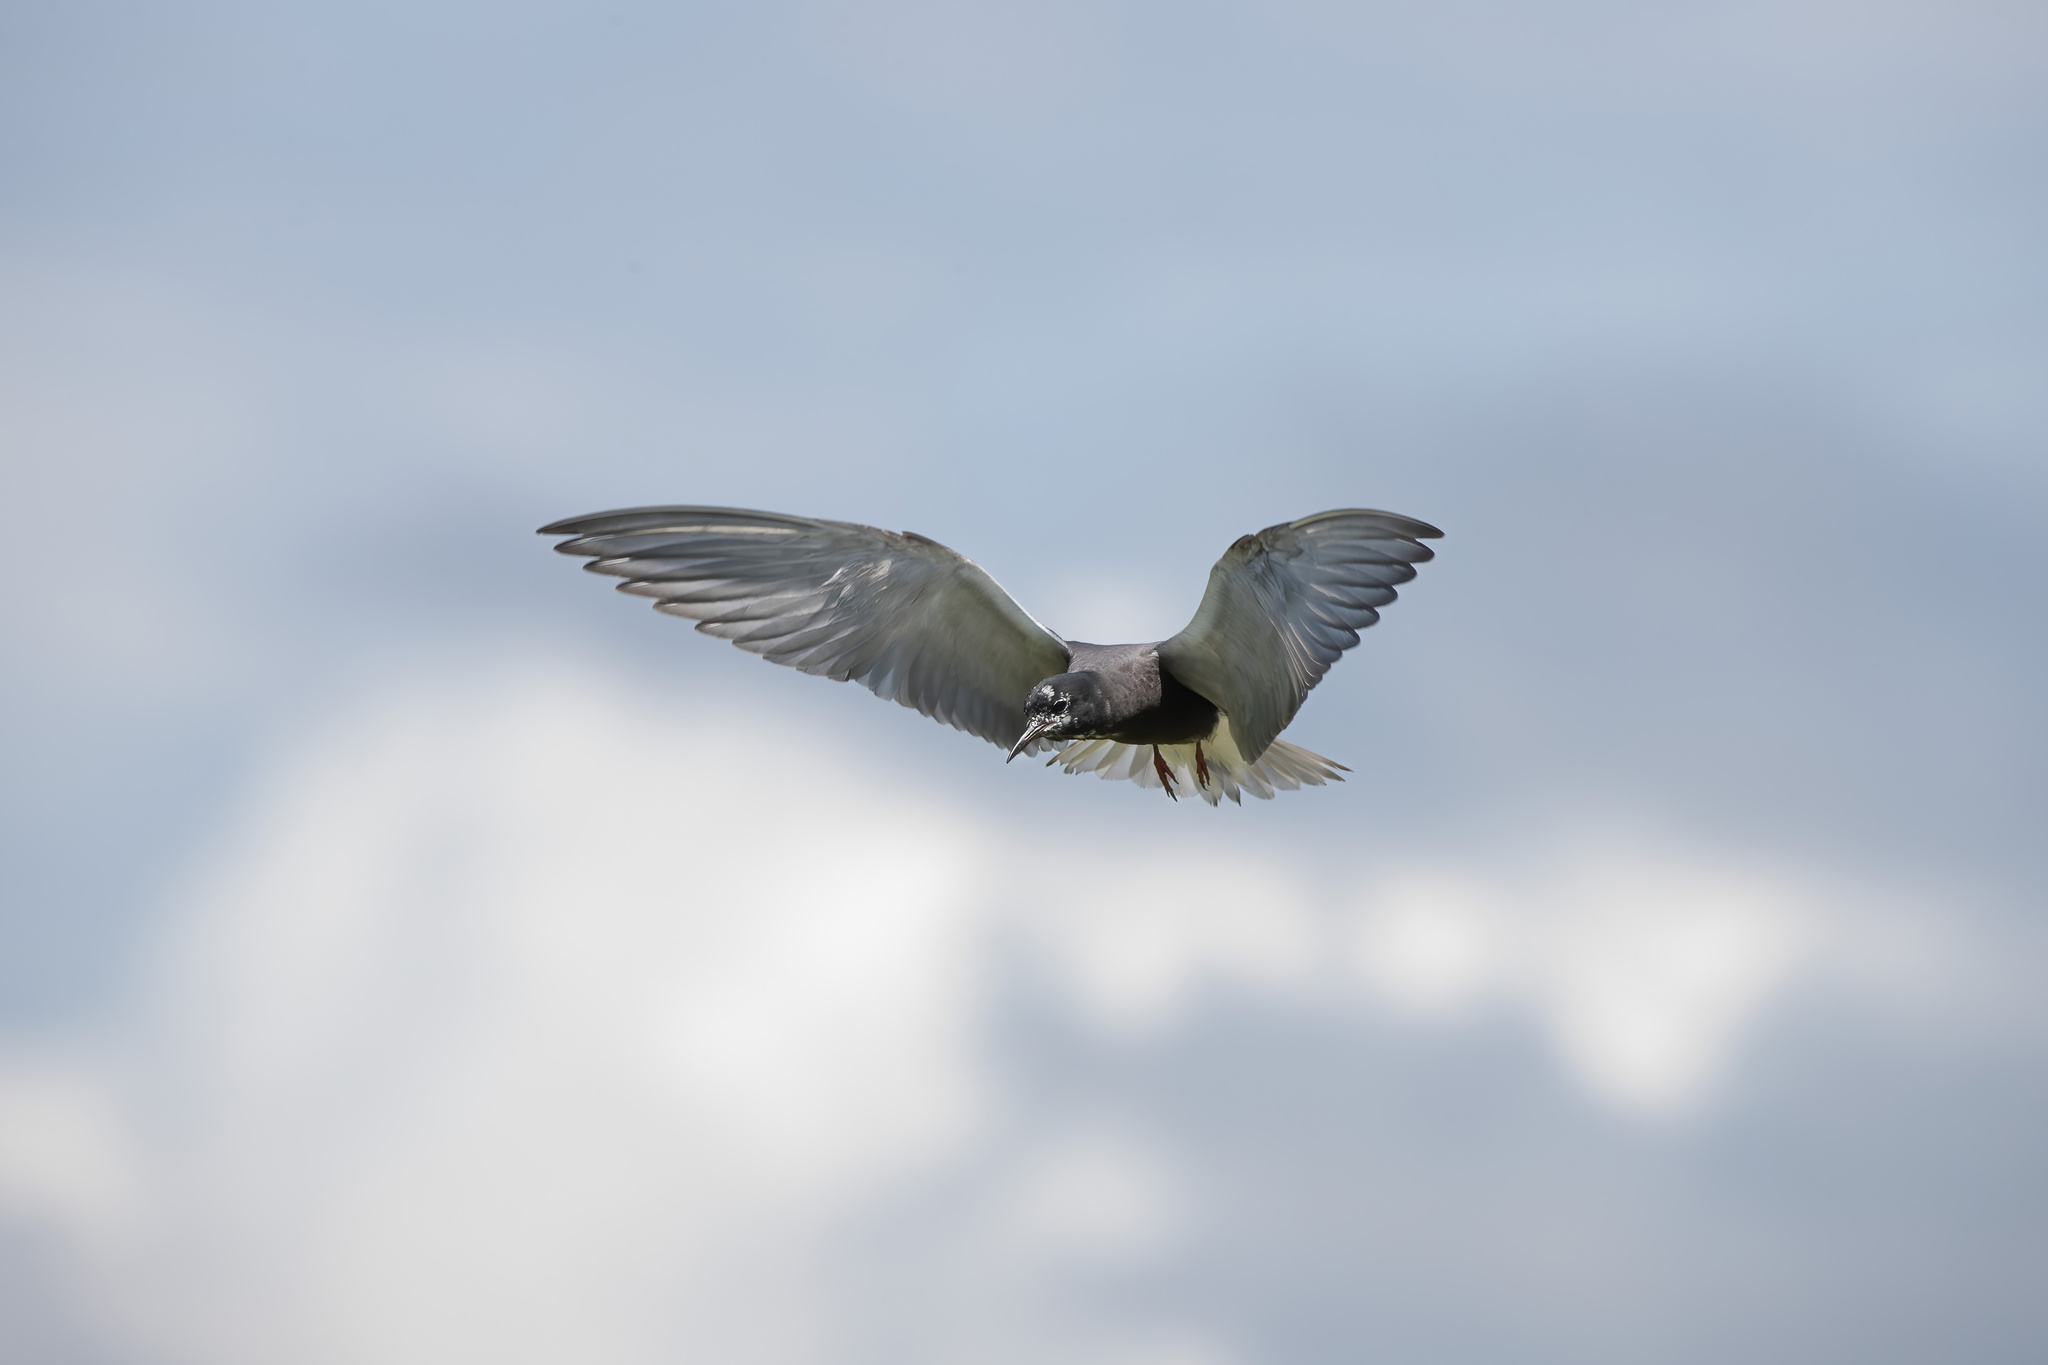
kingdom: Animalia
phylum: Chordata
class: Aves
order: Charadriiformes
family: Laridae
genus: Chlidonias
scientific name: Chlidonias niger
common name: Black tern
